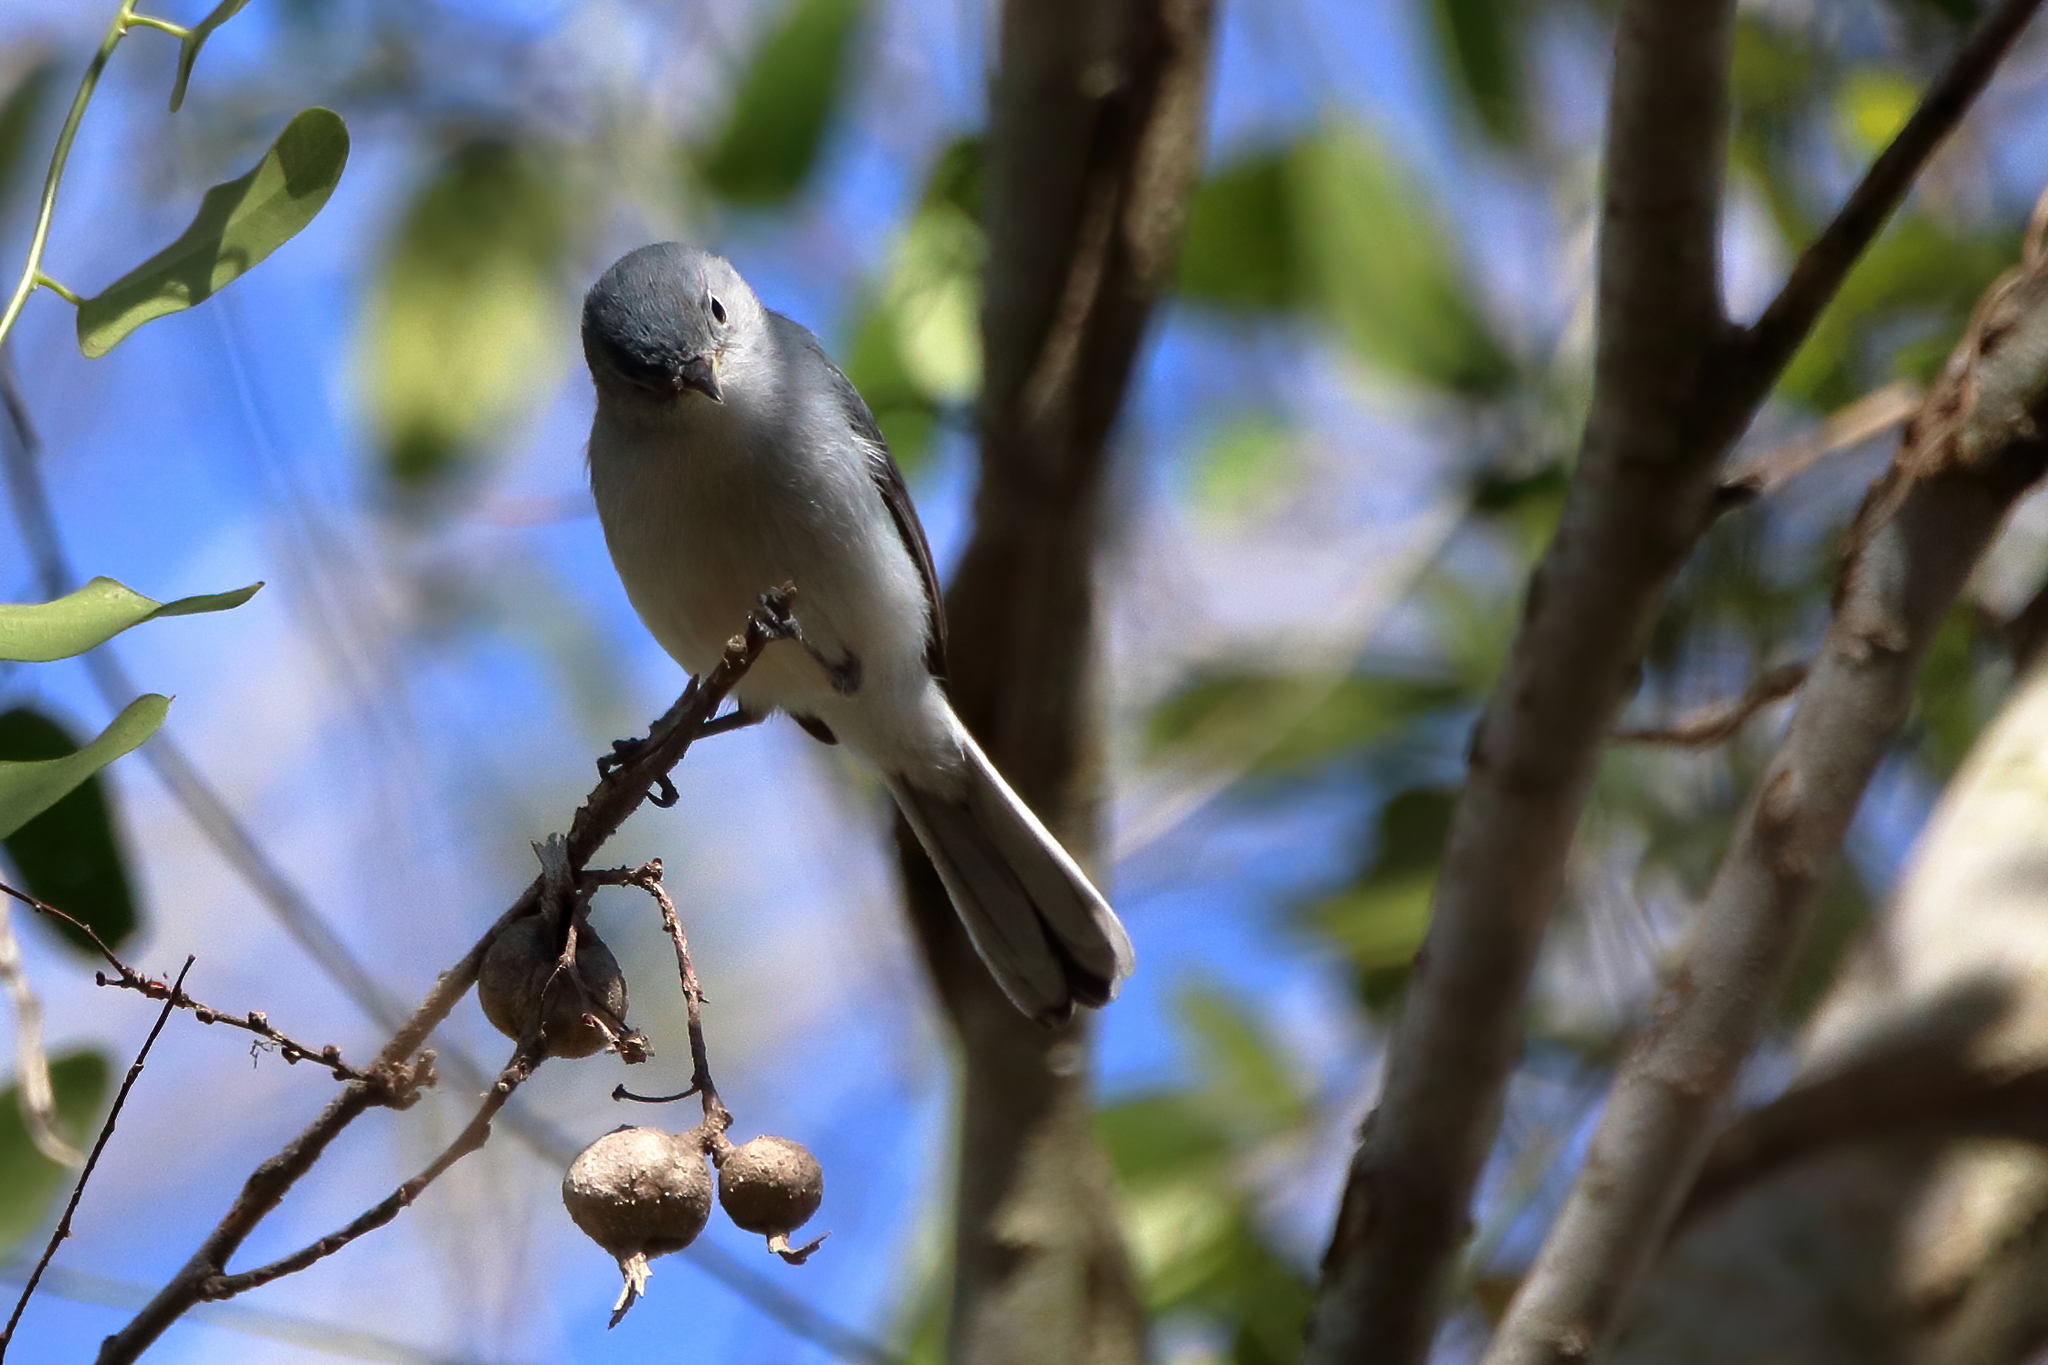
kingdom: Animalia
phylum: Chordata
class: Aves
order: Passeriformes
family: Polioptilidae
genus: Polioptila
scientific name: Polioptila caerulea
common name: Blue-gray gnatcatcher
